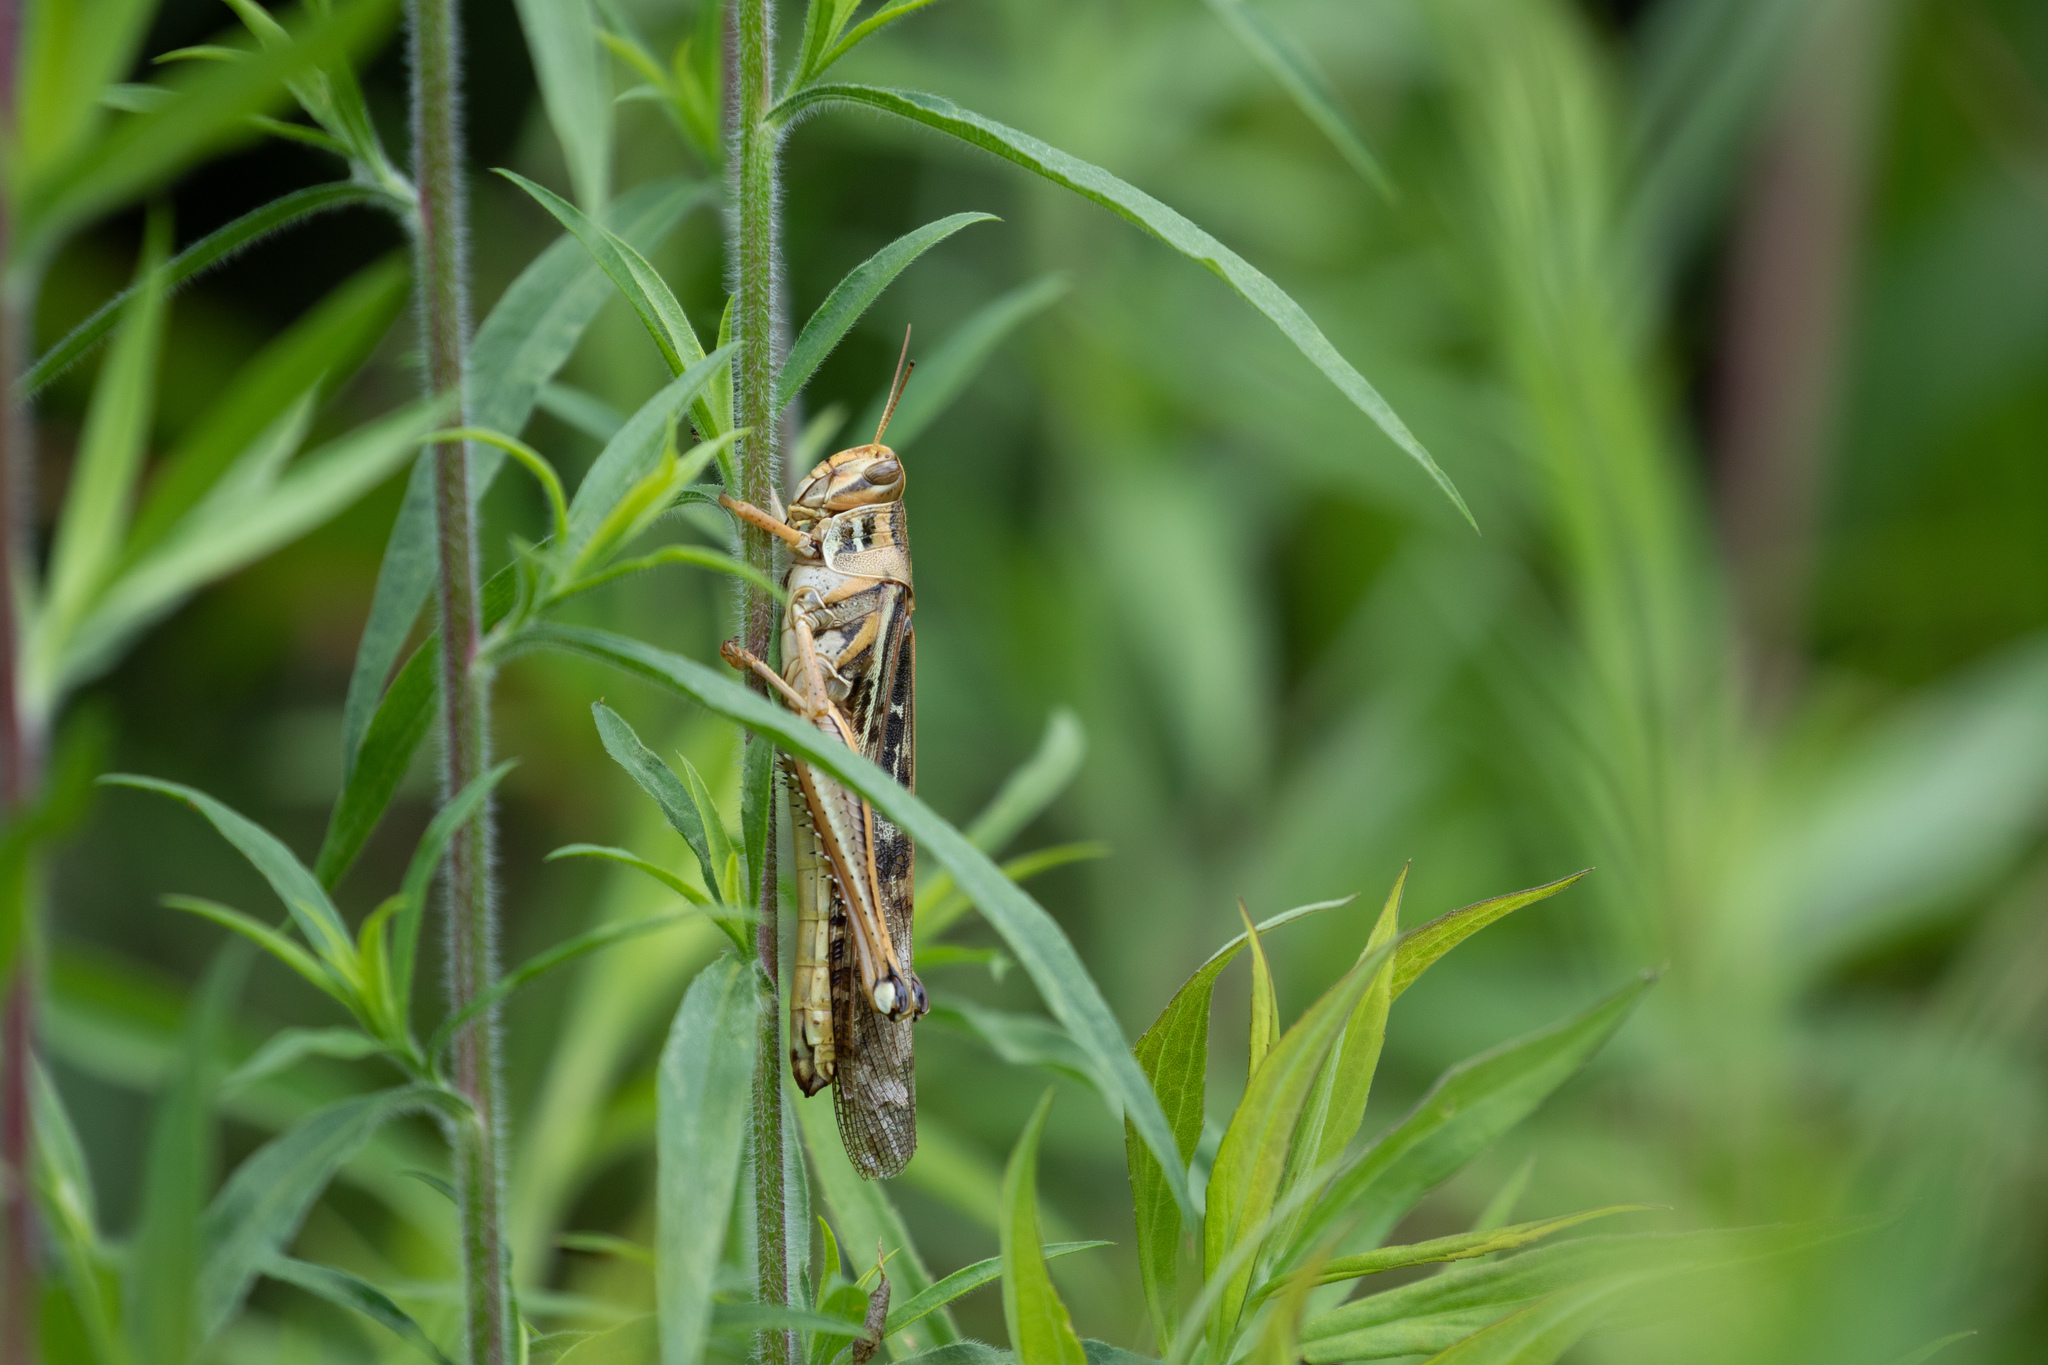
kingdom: Animalia
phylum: Arthropoda
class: Insecta
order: Orthoptera
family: Acrididae
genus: Schistocerca
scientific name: Schistocerca americana
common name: American bird locust
